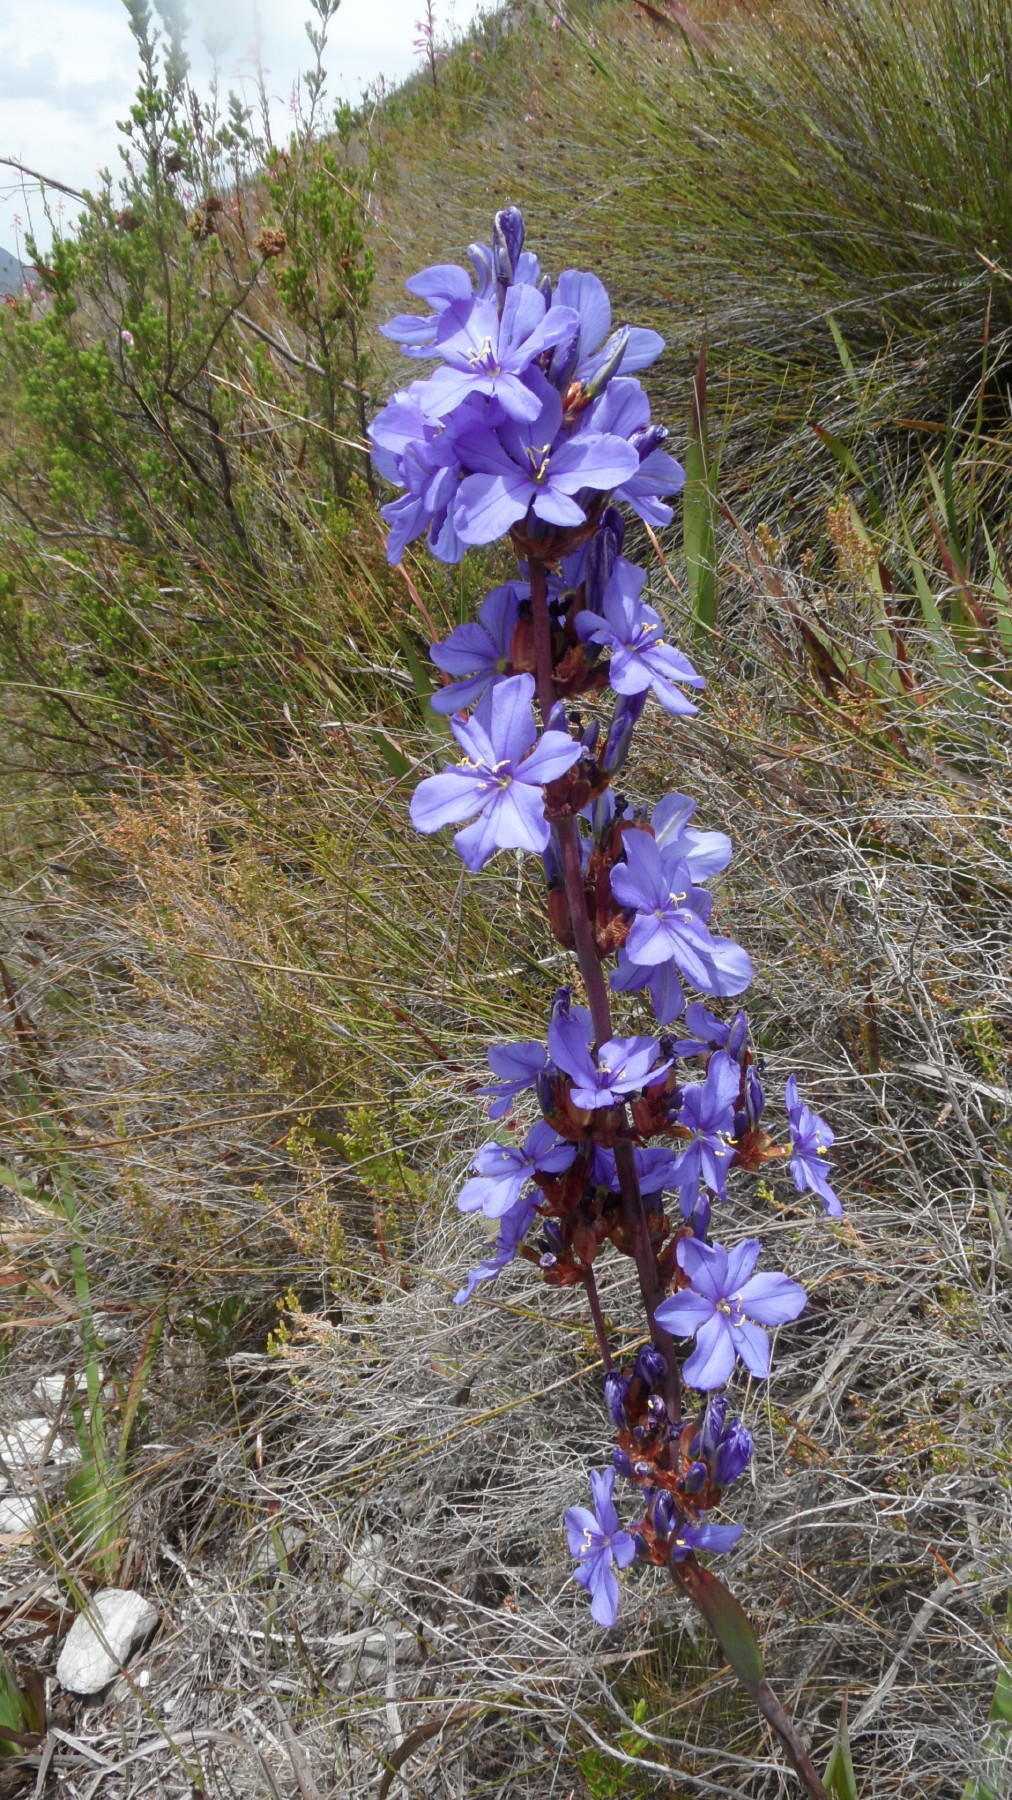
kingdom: Plantae
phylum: Tracheophyta
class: Liliopsida
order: Asparagales
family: Iridaceae
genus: Aristea
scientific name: Aristea bakeri
